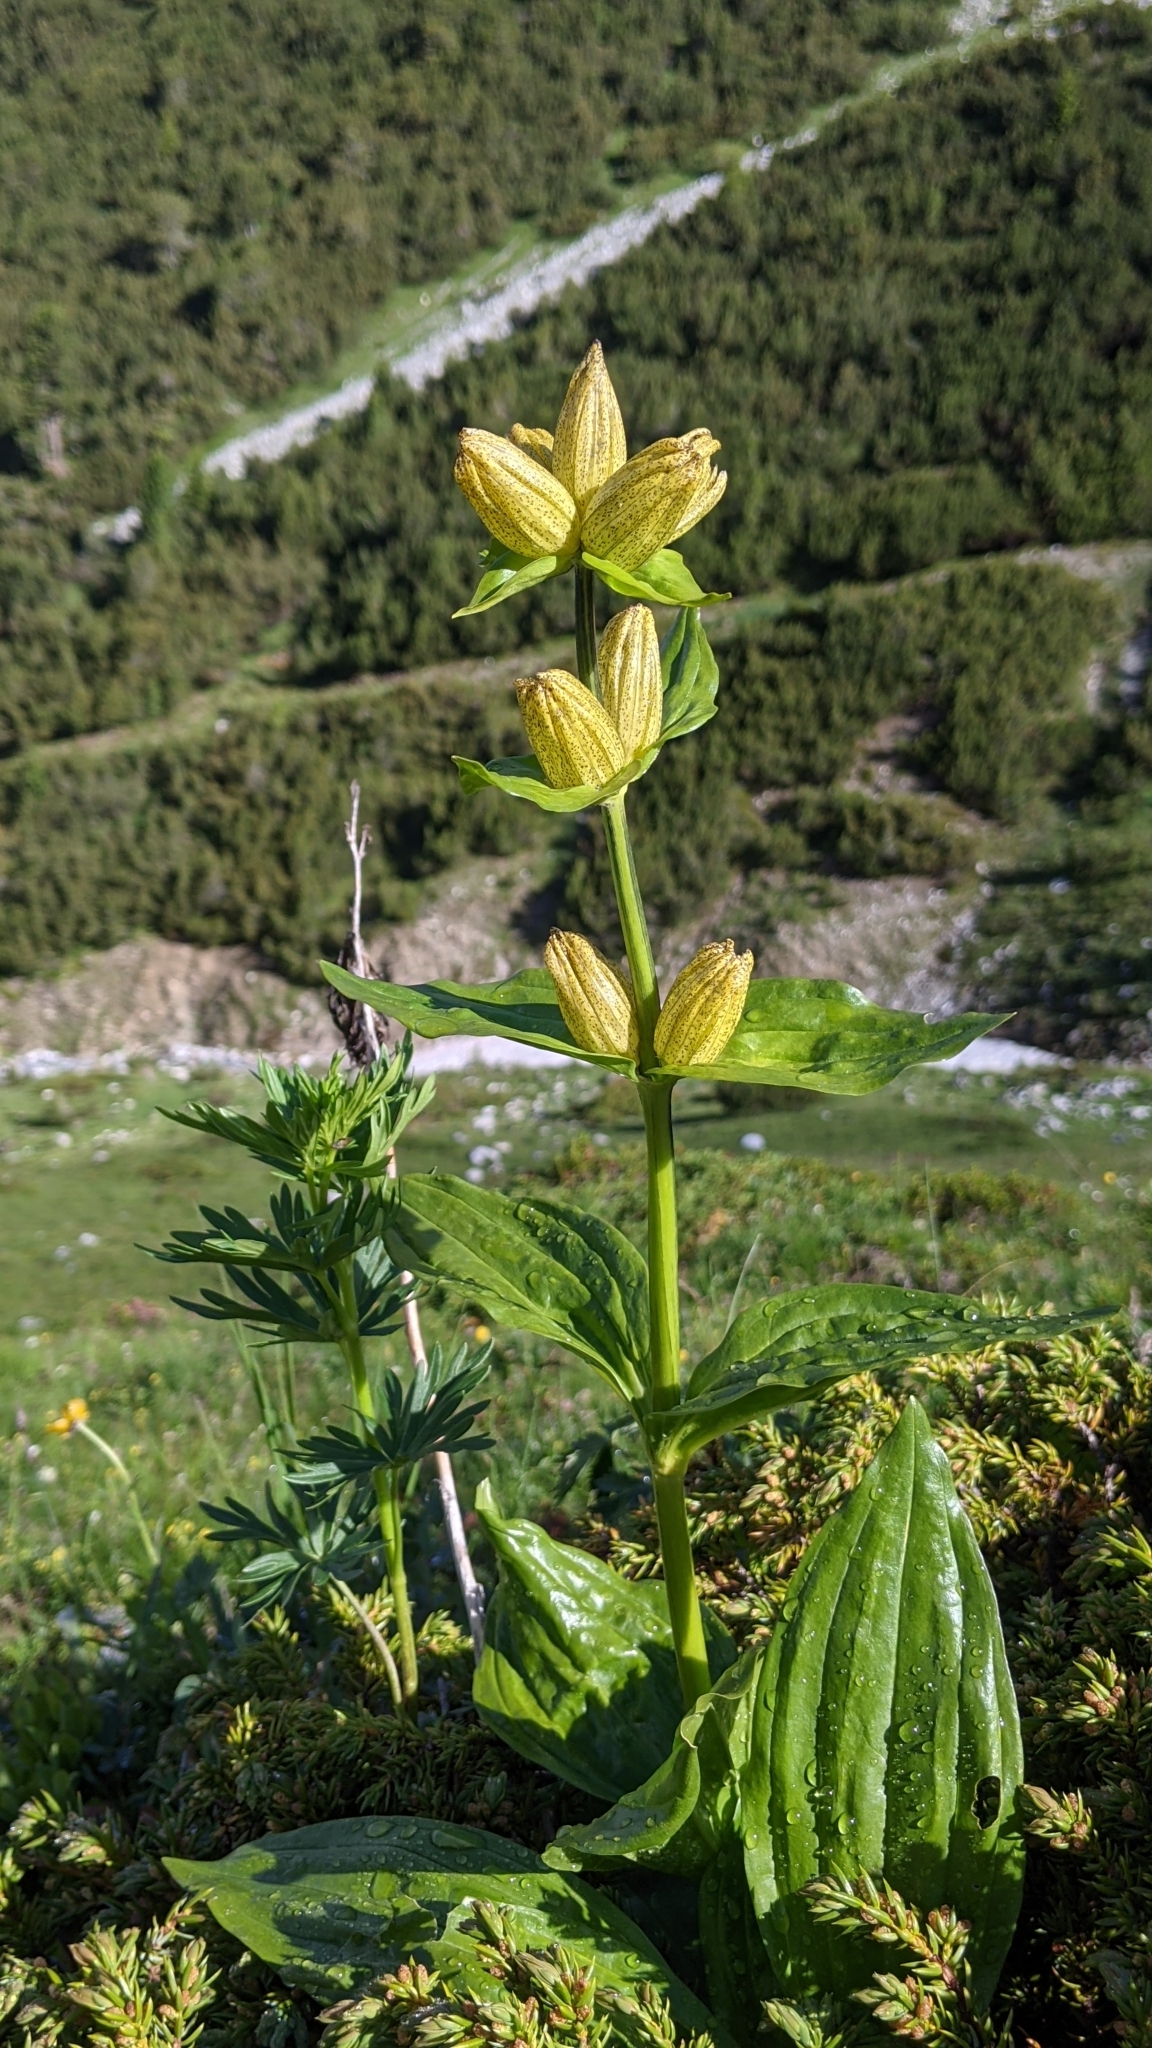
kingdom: Plantae
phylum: Tracheophyta
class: Magnoliopsida
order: Gentianales
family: Gentianaceae
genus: Gentiana
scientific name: Gentiana punctata
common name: Spotted gentian
